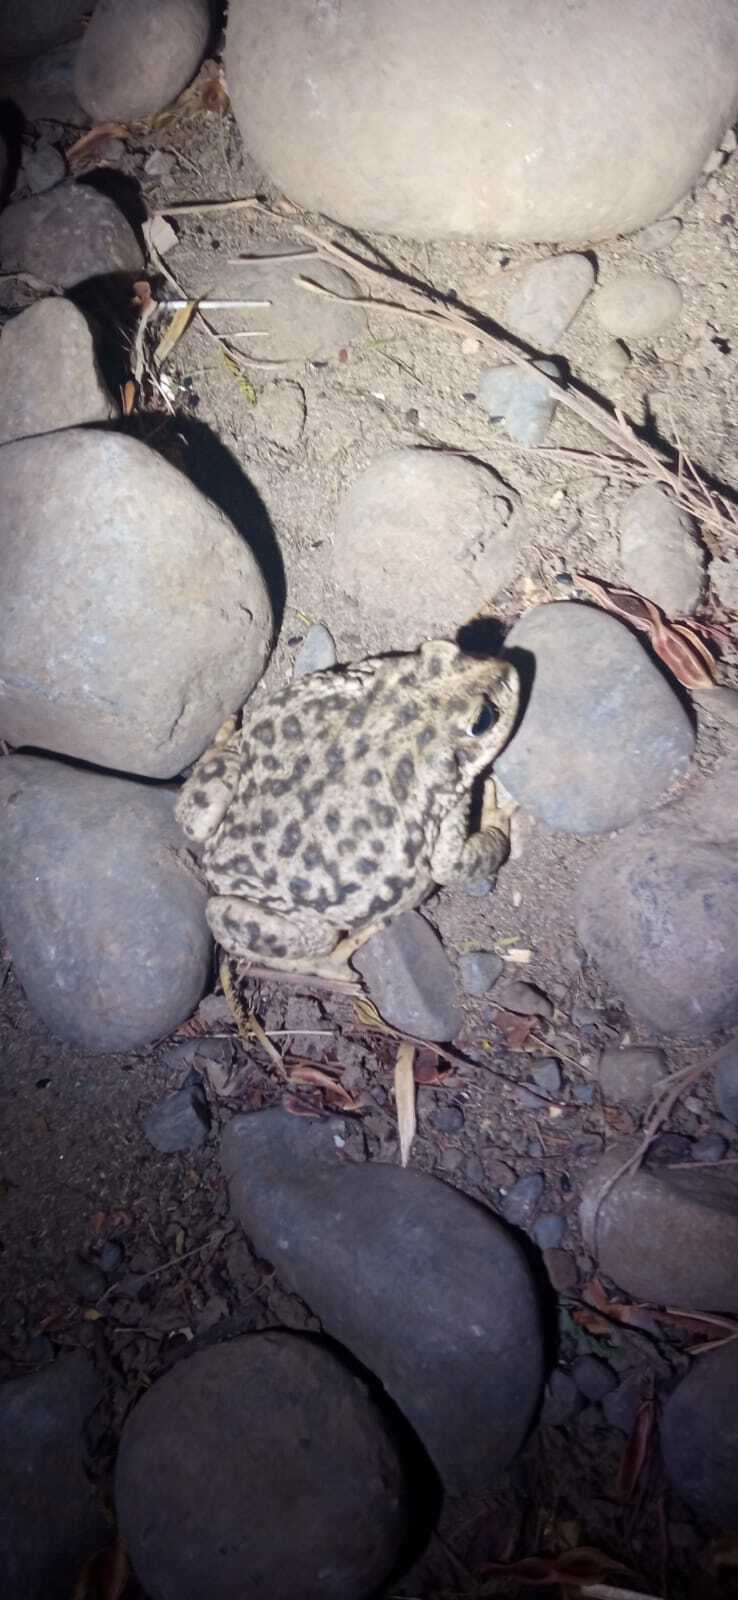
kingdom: Animalia
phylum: Chordata
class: Amphibia
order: Anura
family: Bufonidae
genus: Rhinella
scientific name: Rhinella arunco
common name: Concepcion toad
